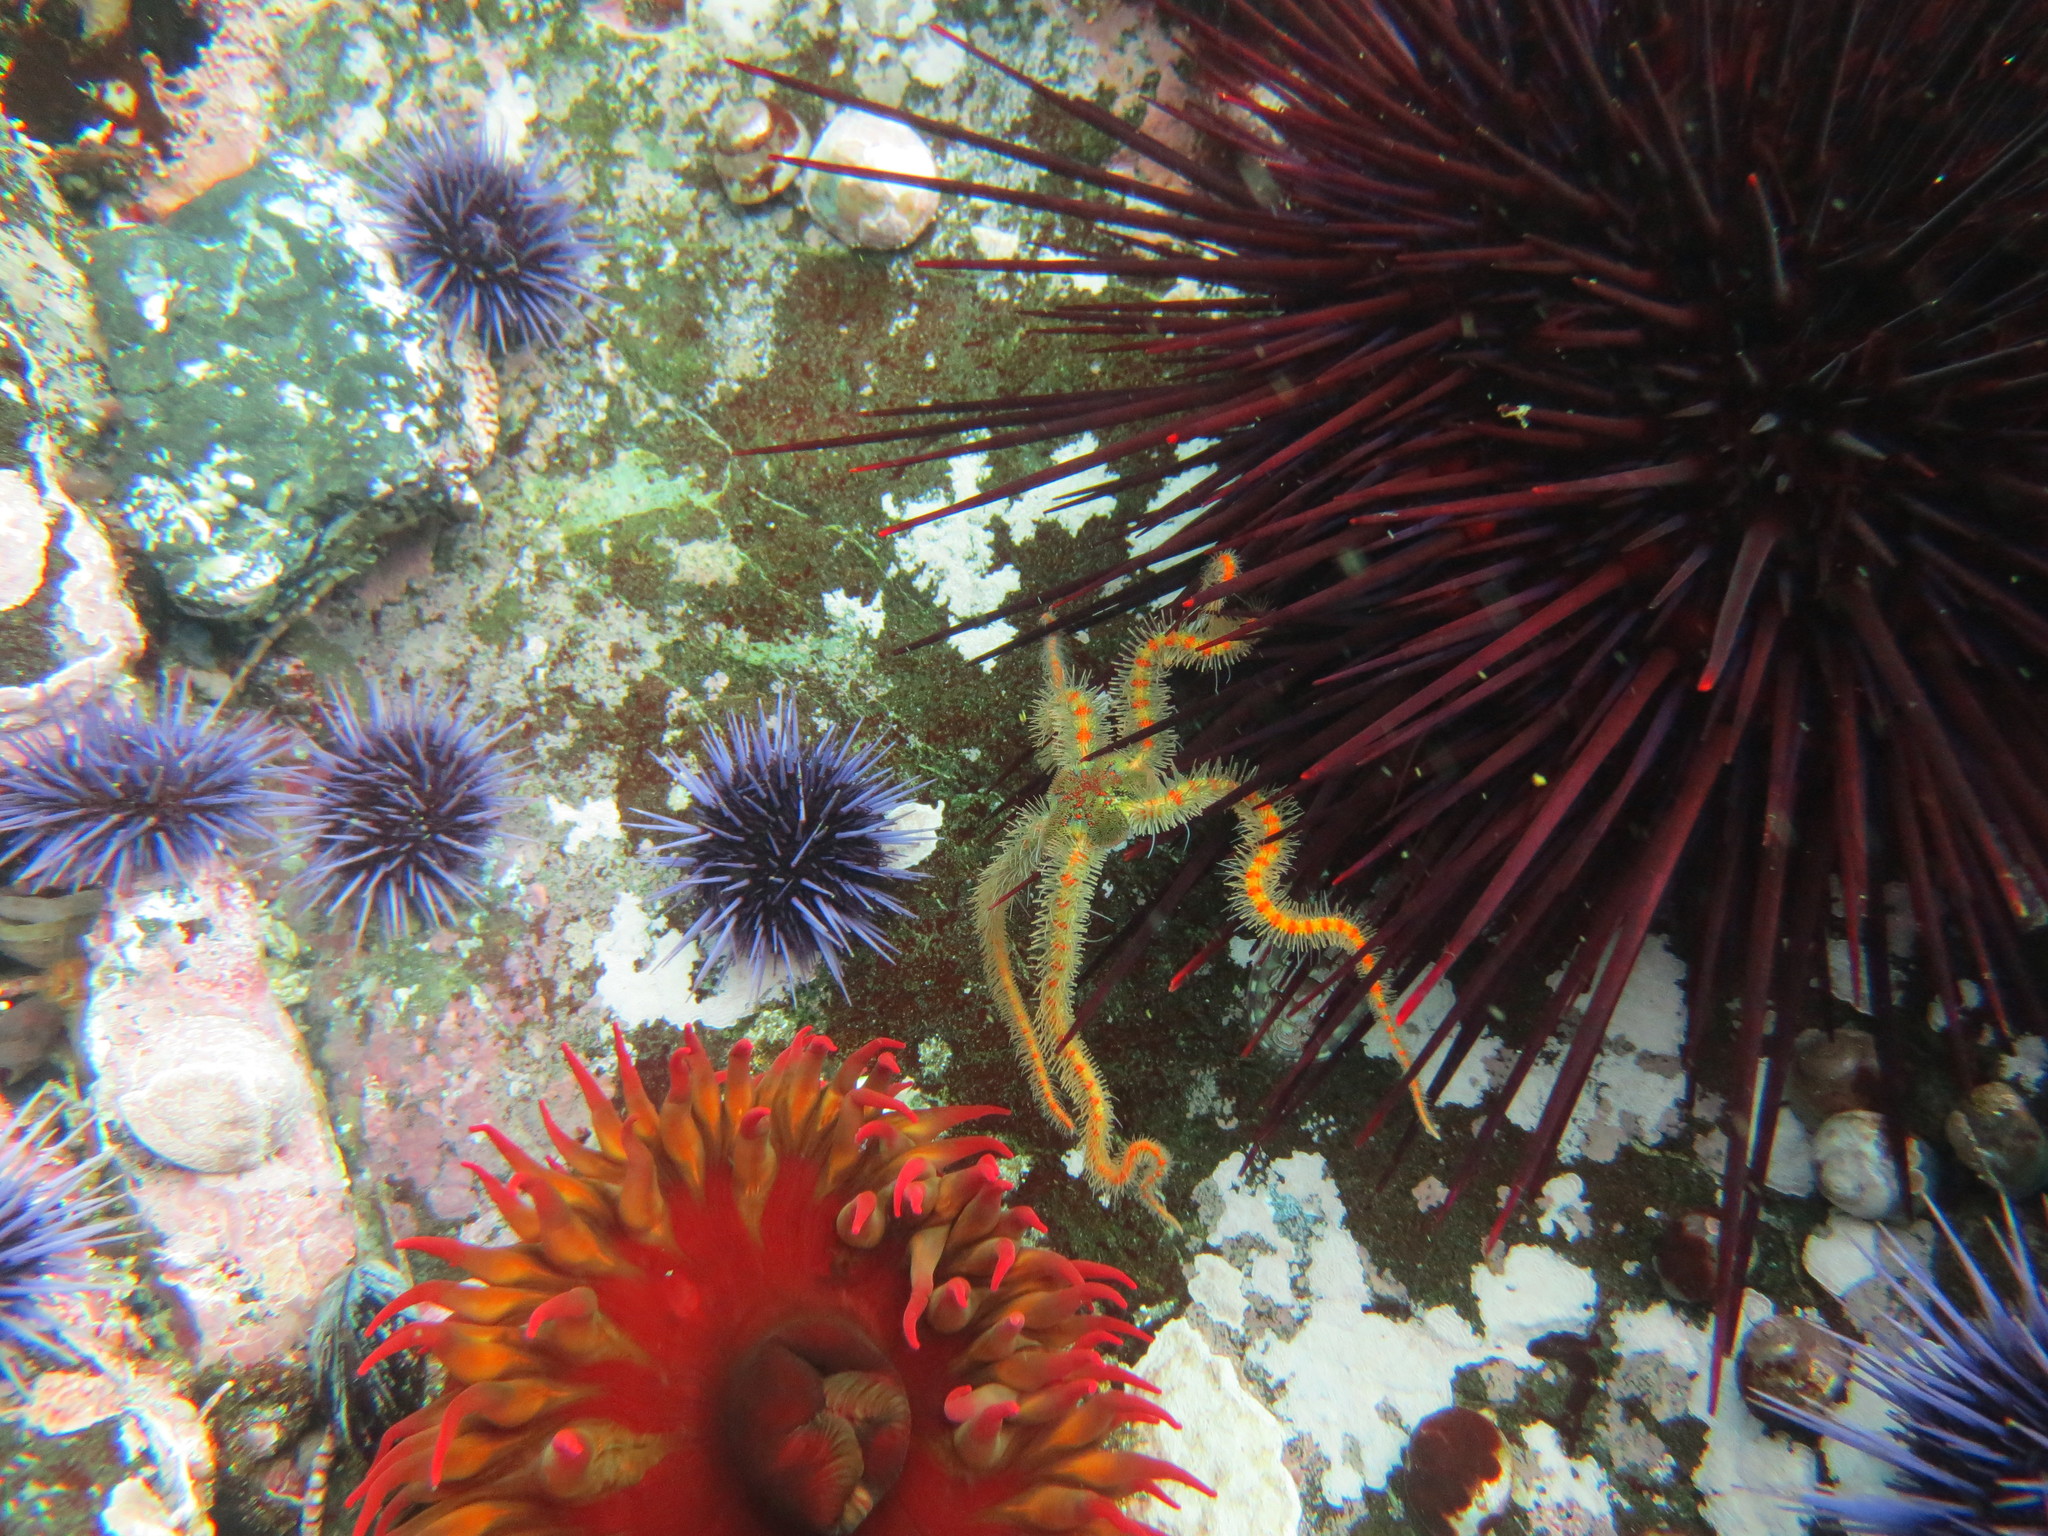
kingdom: Animalia
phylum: Echinodermata
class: Ophiuroidea
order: Amphilepidida
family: Ophiotrichidae
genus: Ophiothrix
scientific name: Ophiothrix spiculata
